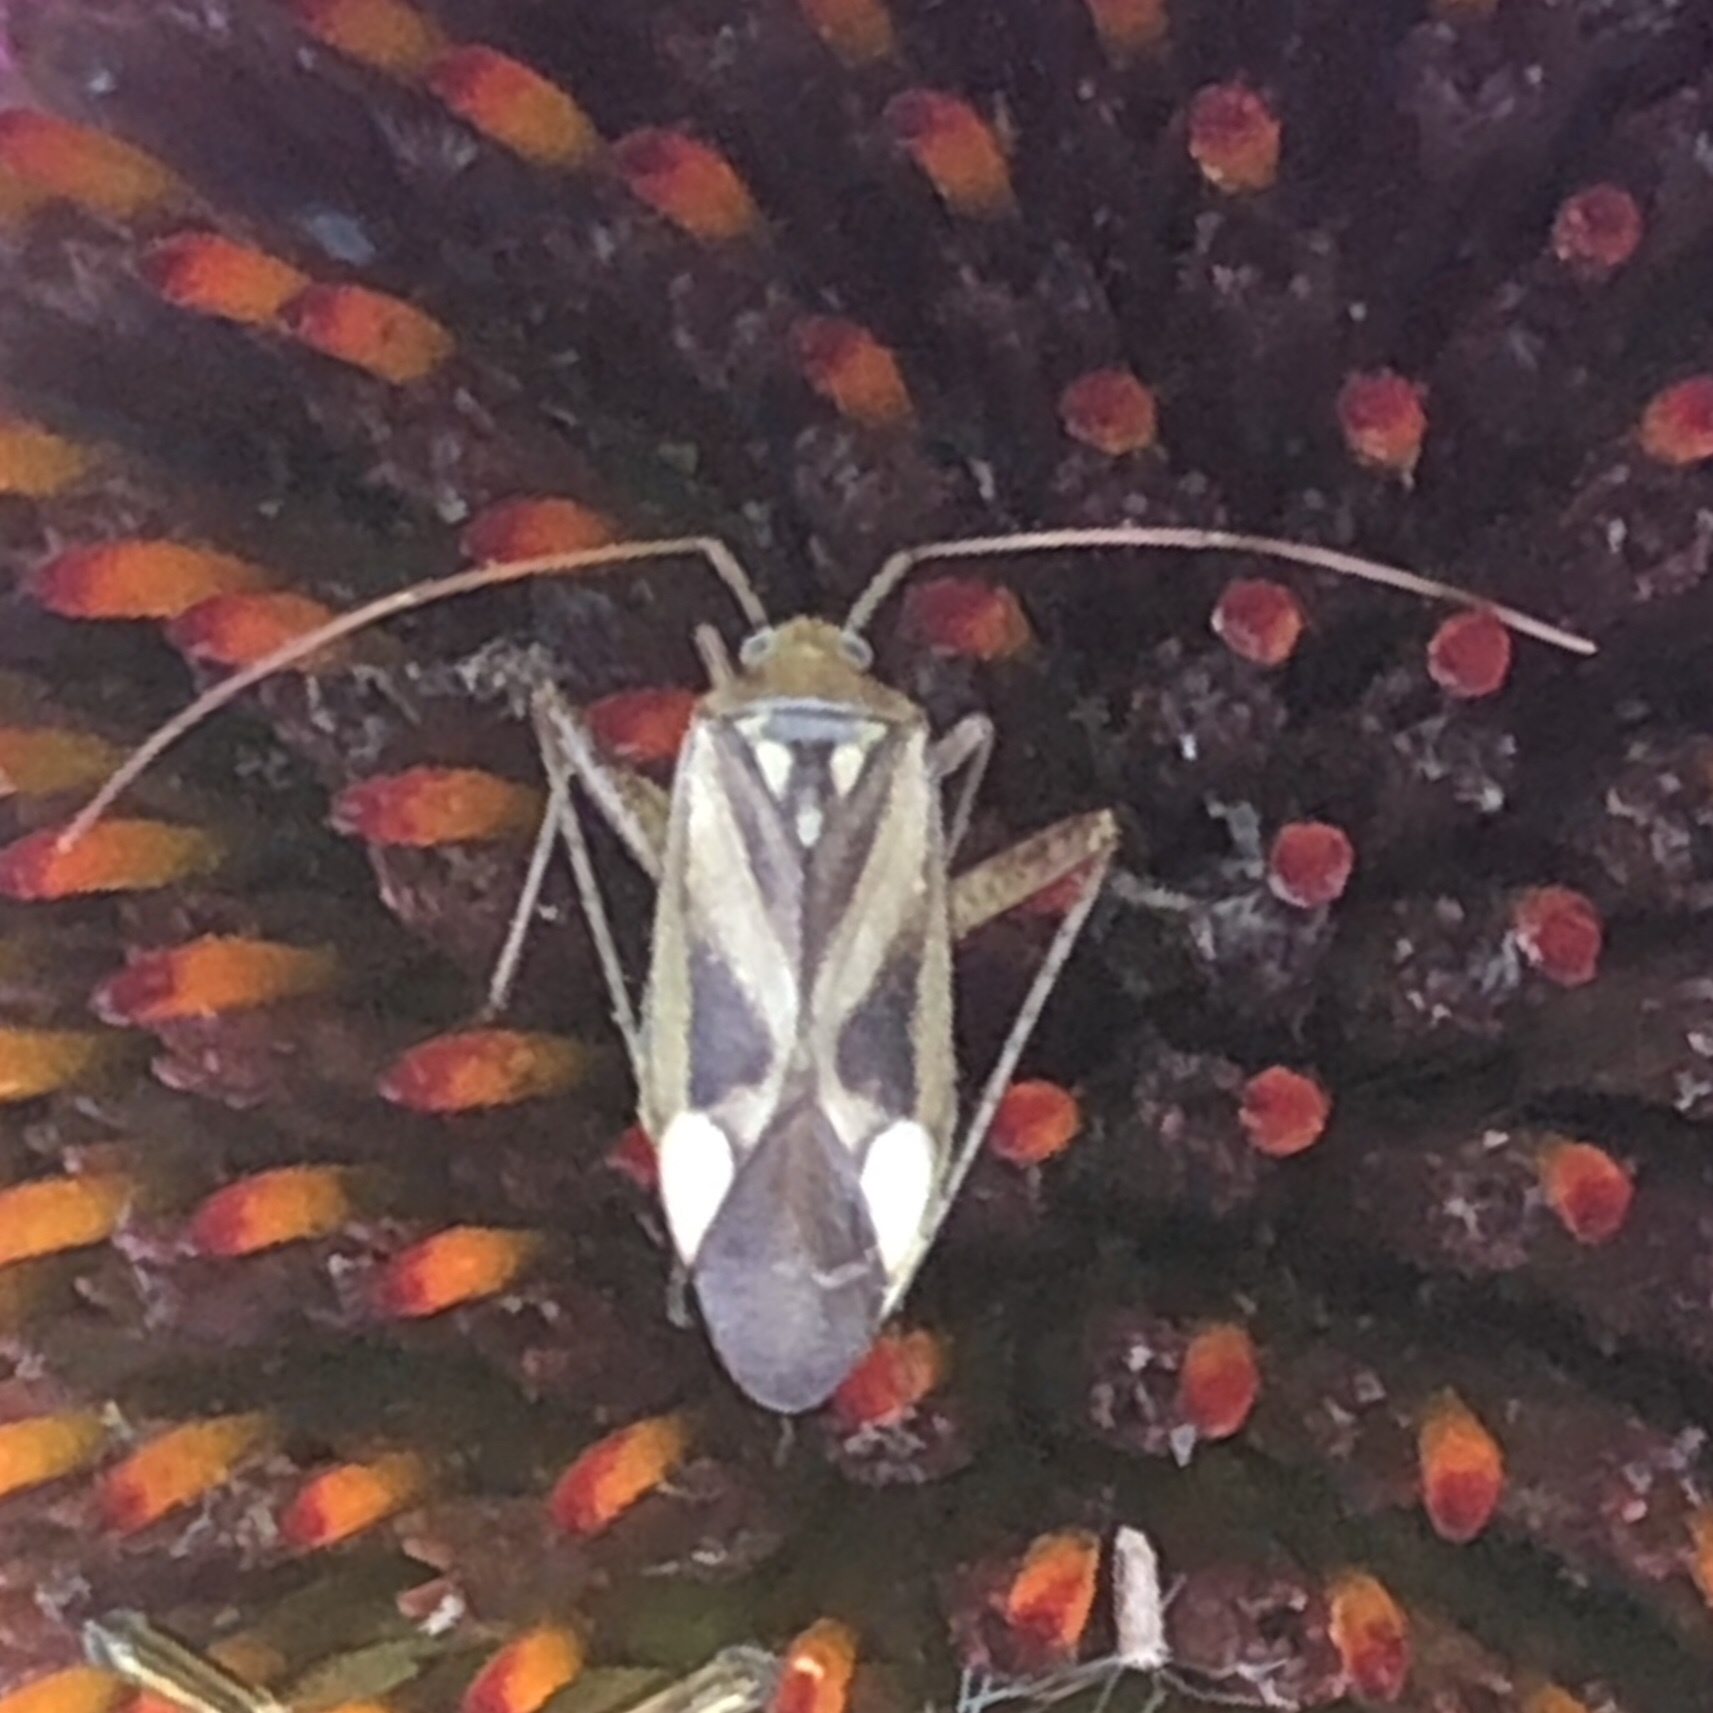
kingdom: Animalia
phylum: Arthropoda
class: Insecta
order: Hemiptera
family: Miridae
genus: Adelphocoris
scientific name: Adelphocoris lineolatus
